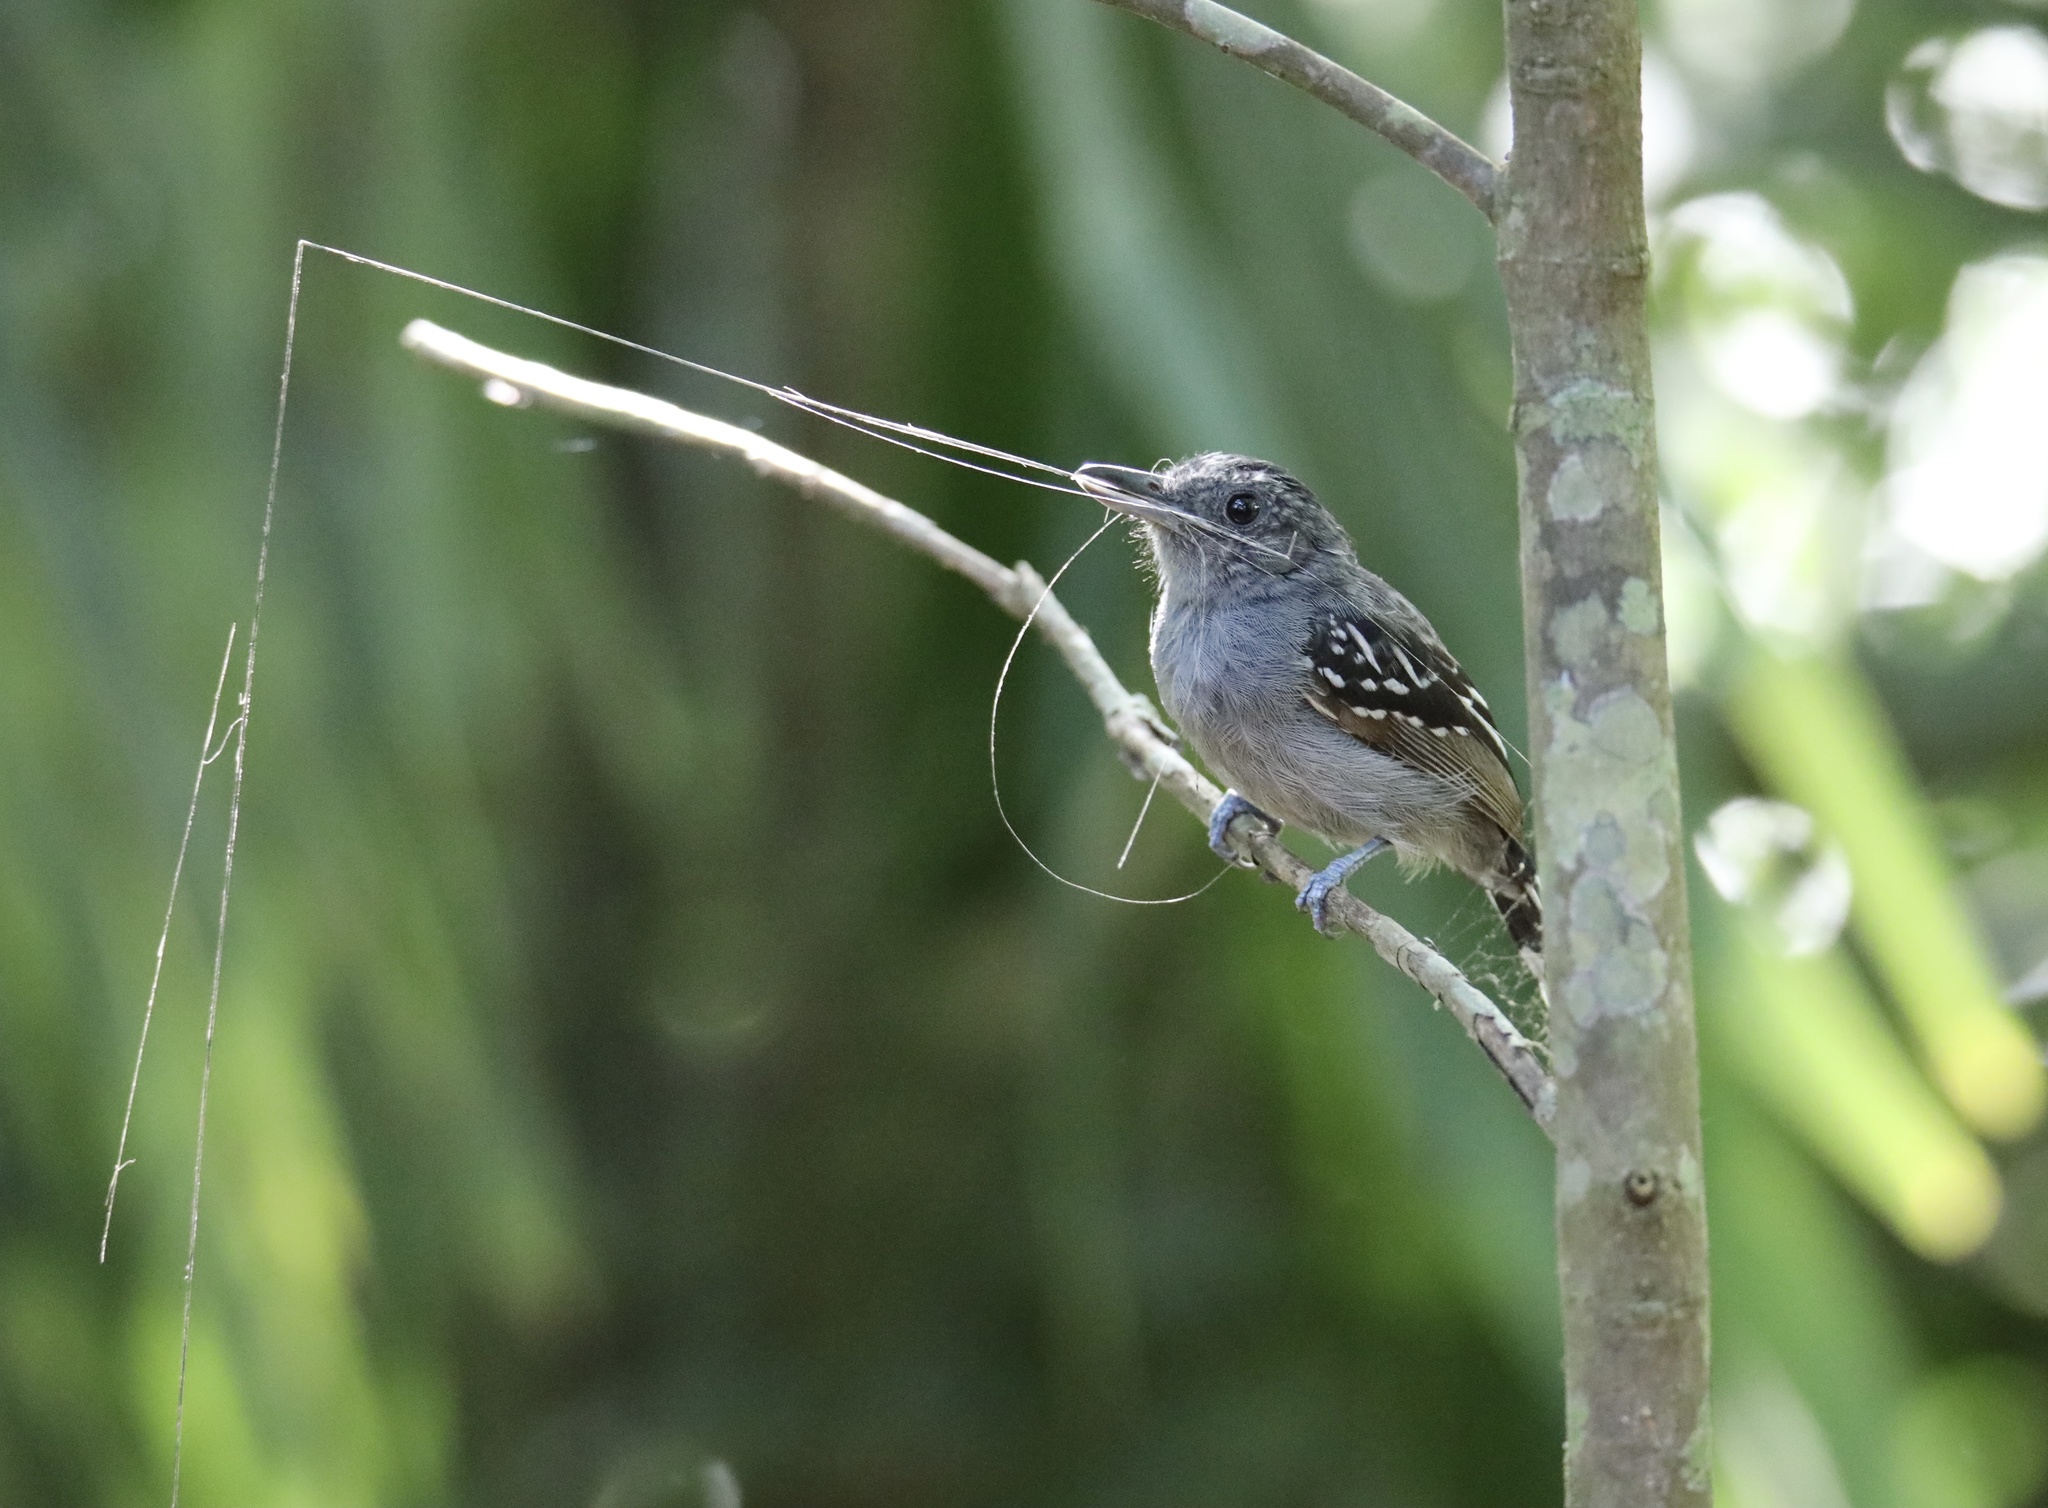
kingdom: Animalia
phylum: Chordata
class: Aves
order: Passeriformes
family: Thamnophilidae
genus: Thamnophilus
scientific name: Thamnophilus atrinucha
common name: Black-crowned antshrike
